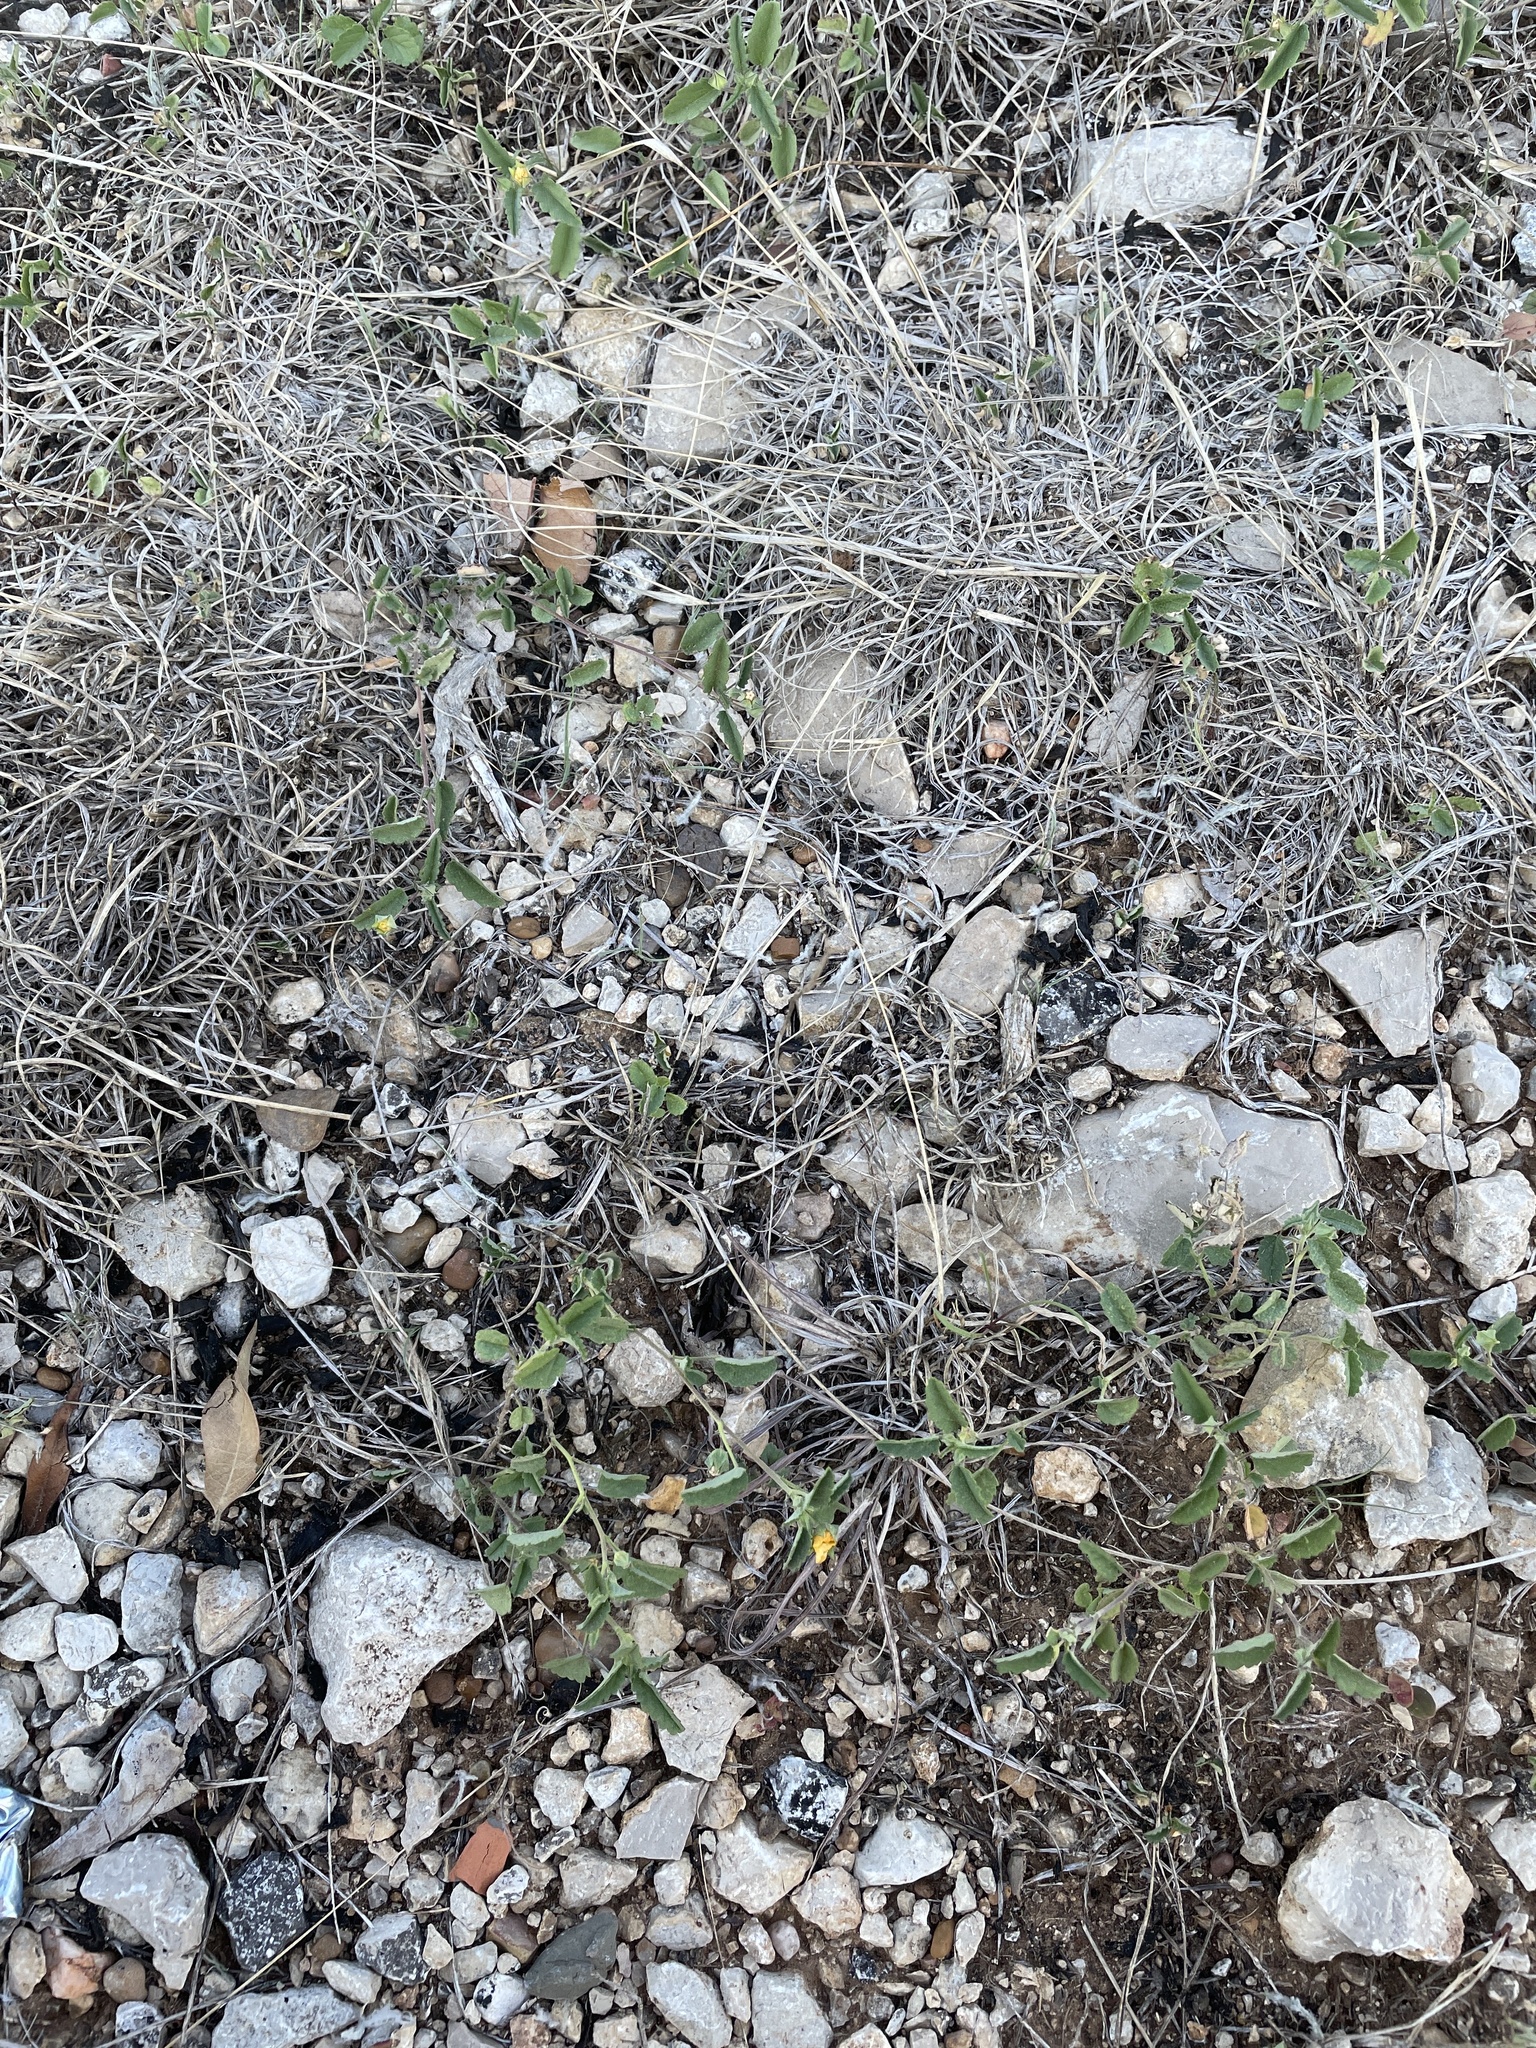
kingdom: Plantae
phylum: Tracheophyta
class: Magnoliopsida
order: Malvales
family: Malvaceae
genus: Sida
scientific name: Sida abutilifolia
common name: Spreading fanpetals
